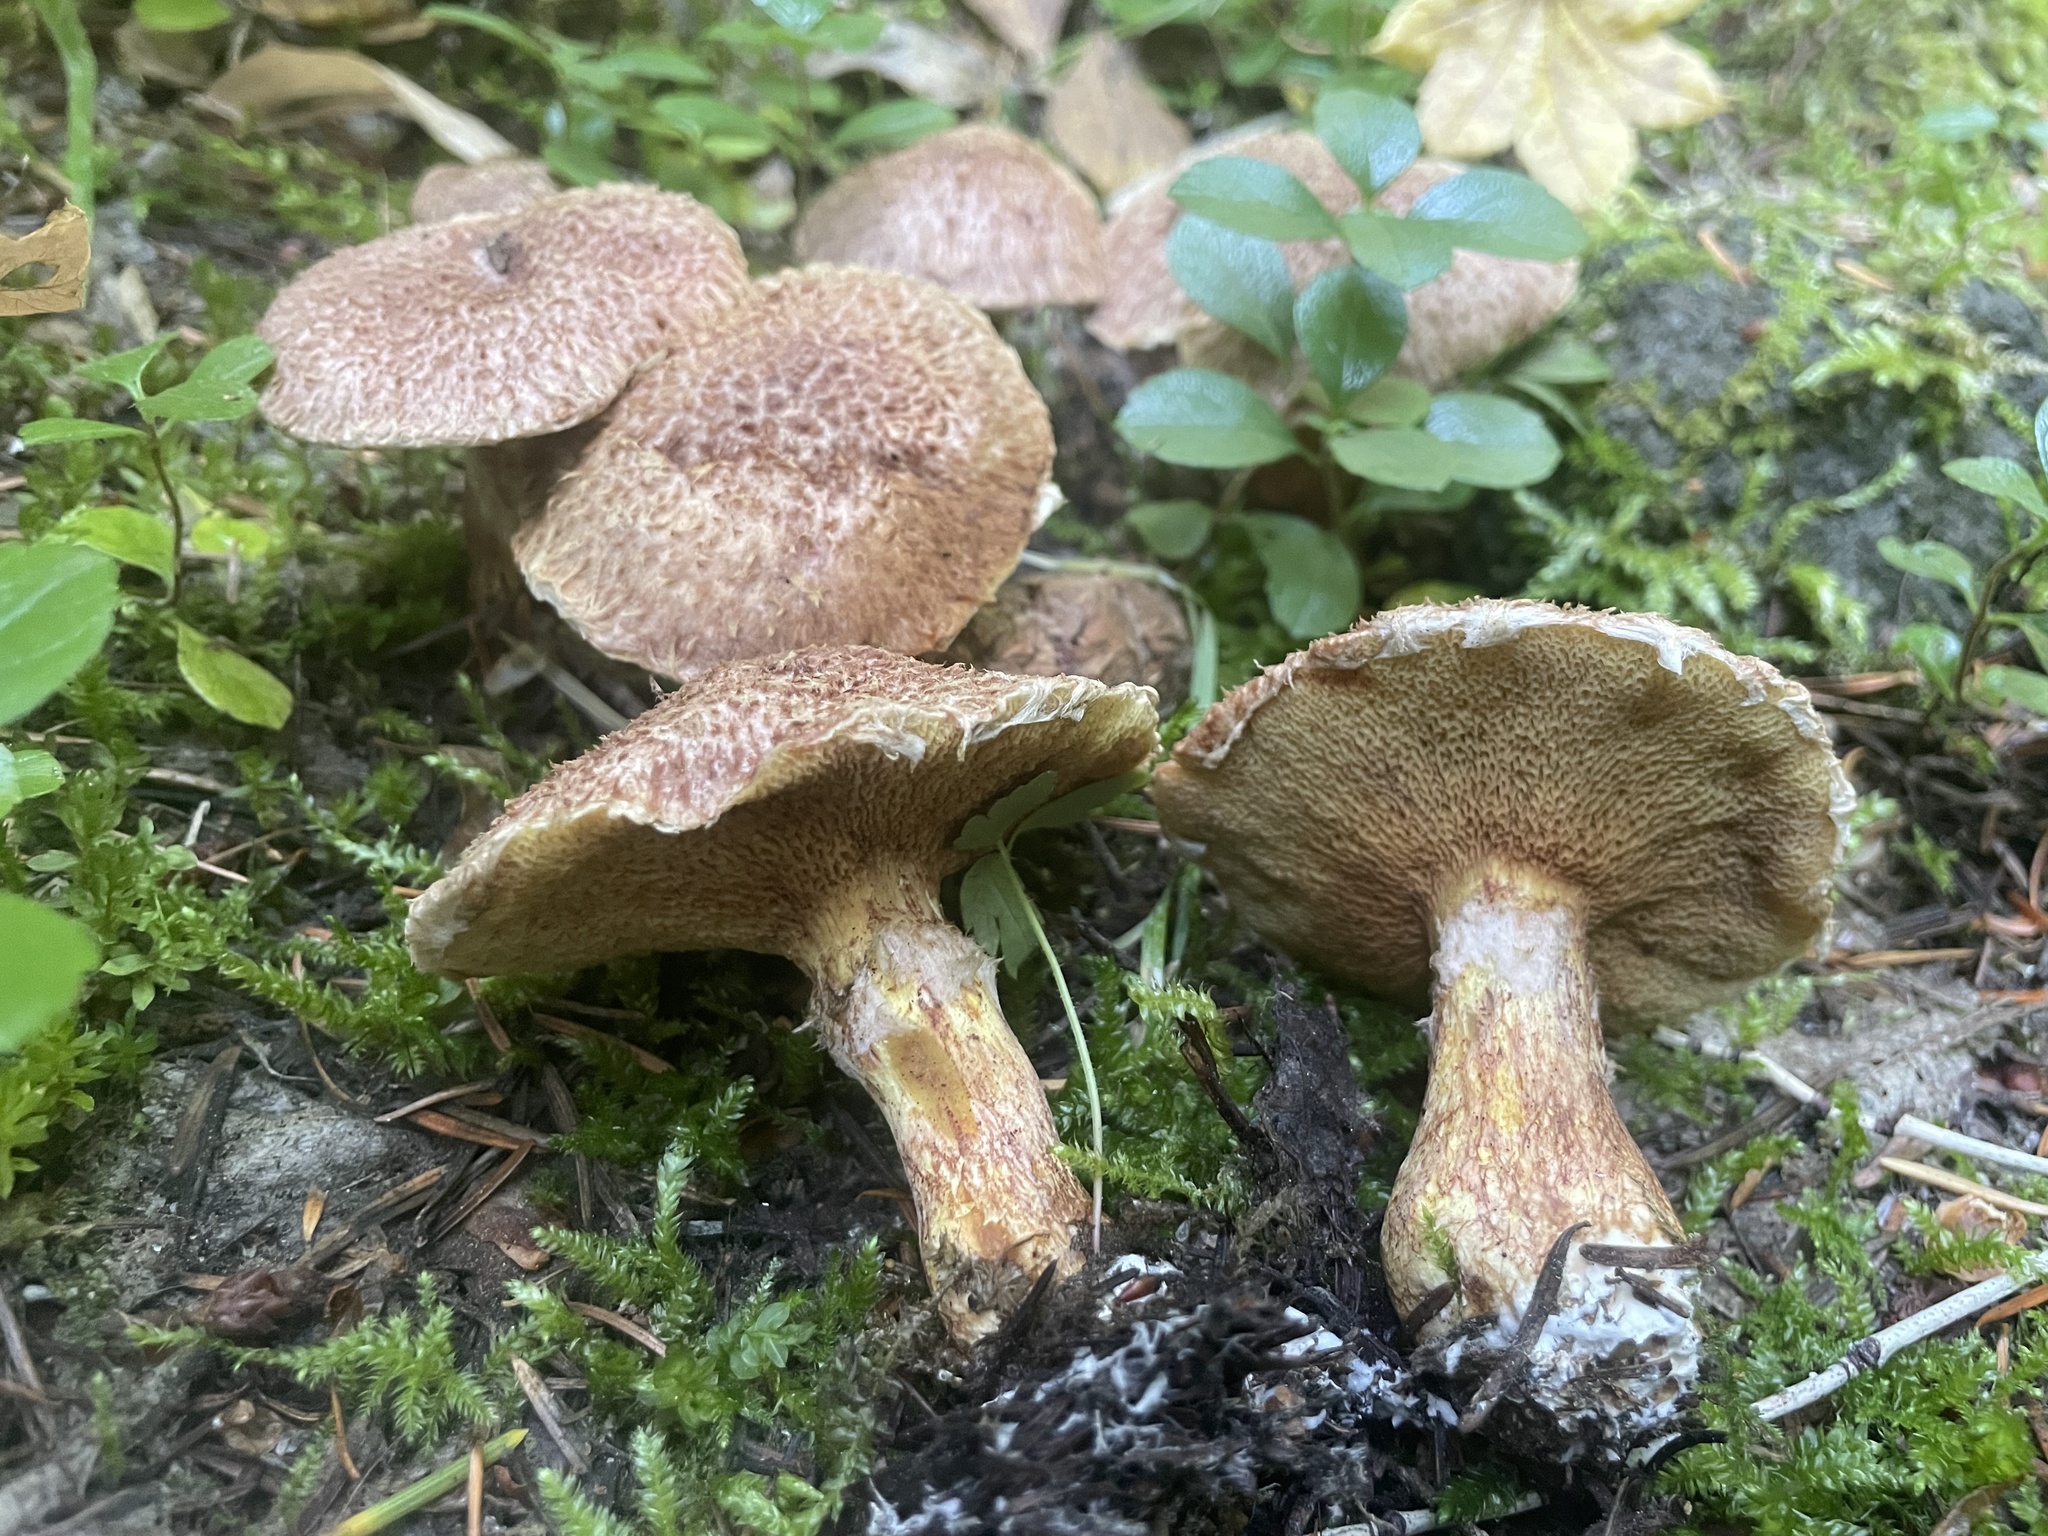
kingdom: Fungi
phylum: Basidiomycota
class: Agaricomycetes
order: Boletales
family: Suillaceae
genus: Suillus
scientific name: Suillus lakei
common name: Western painted suillus
